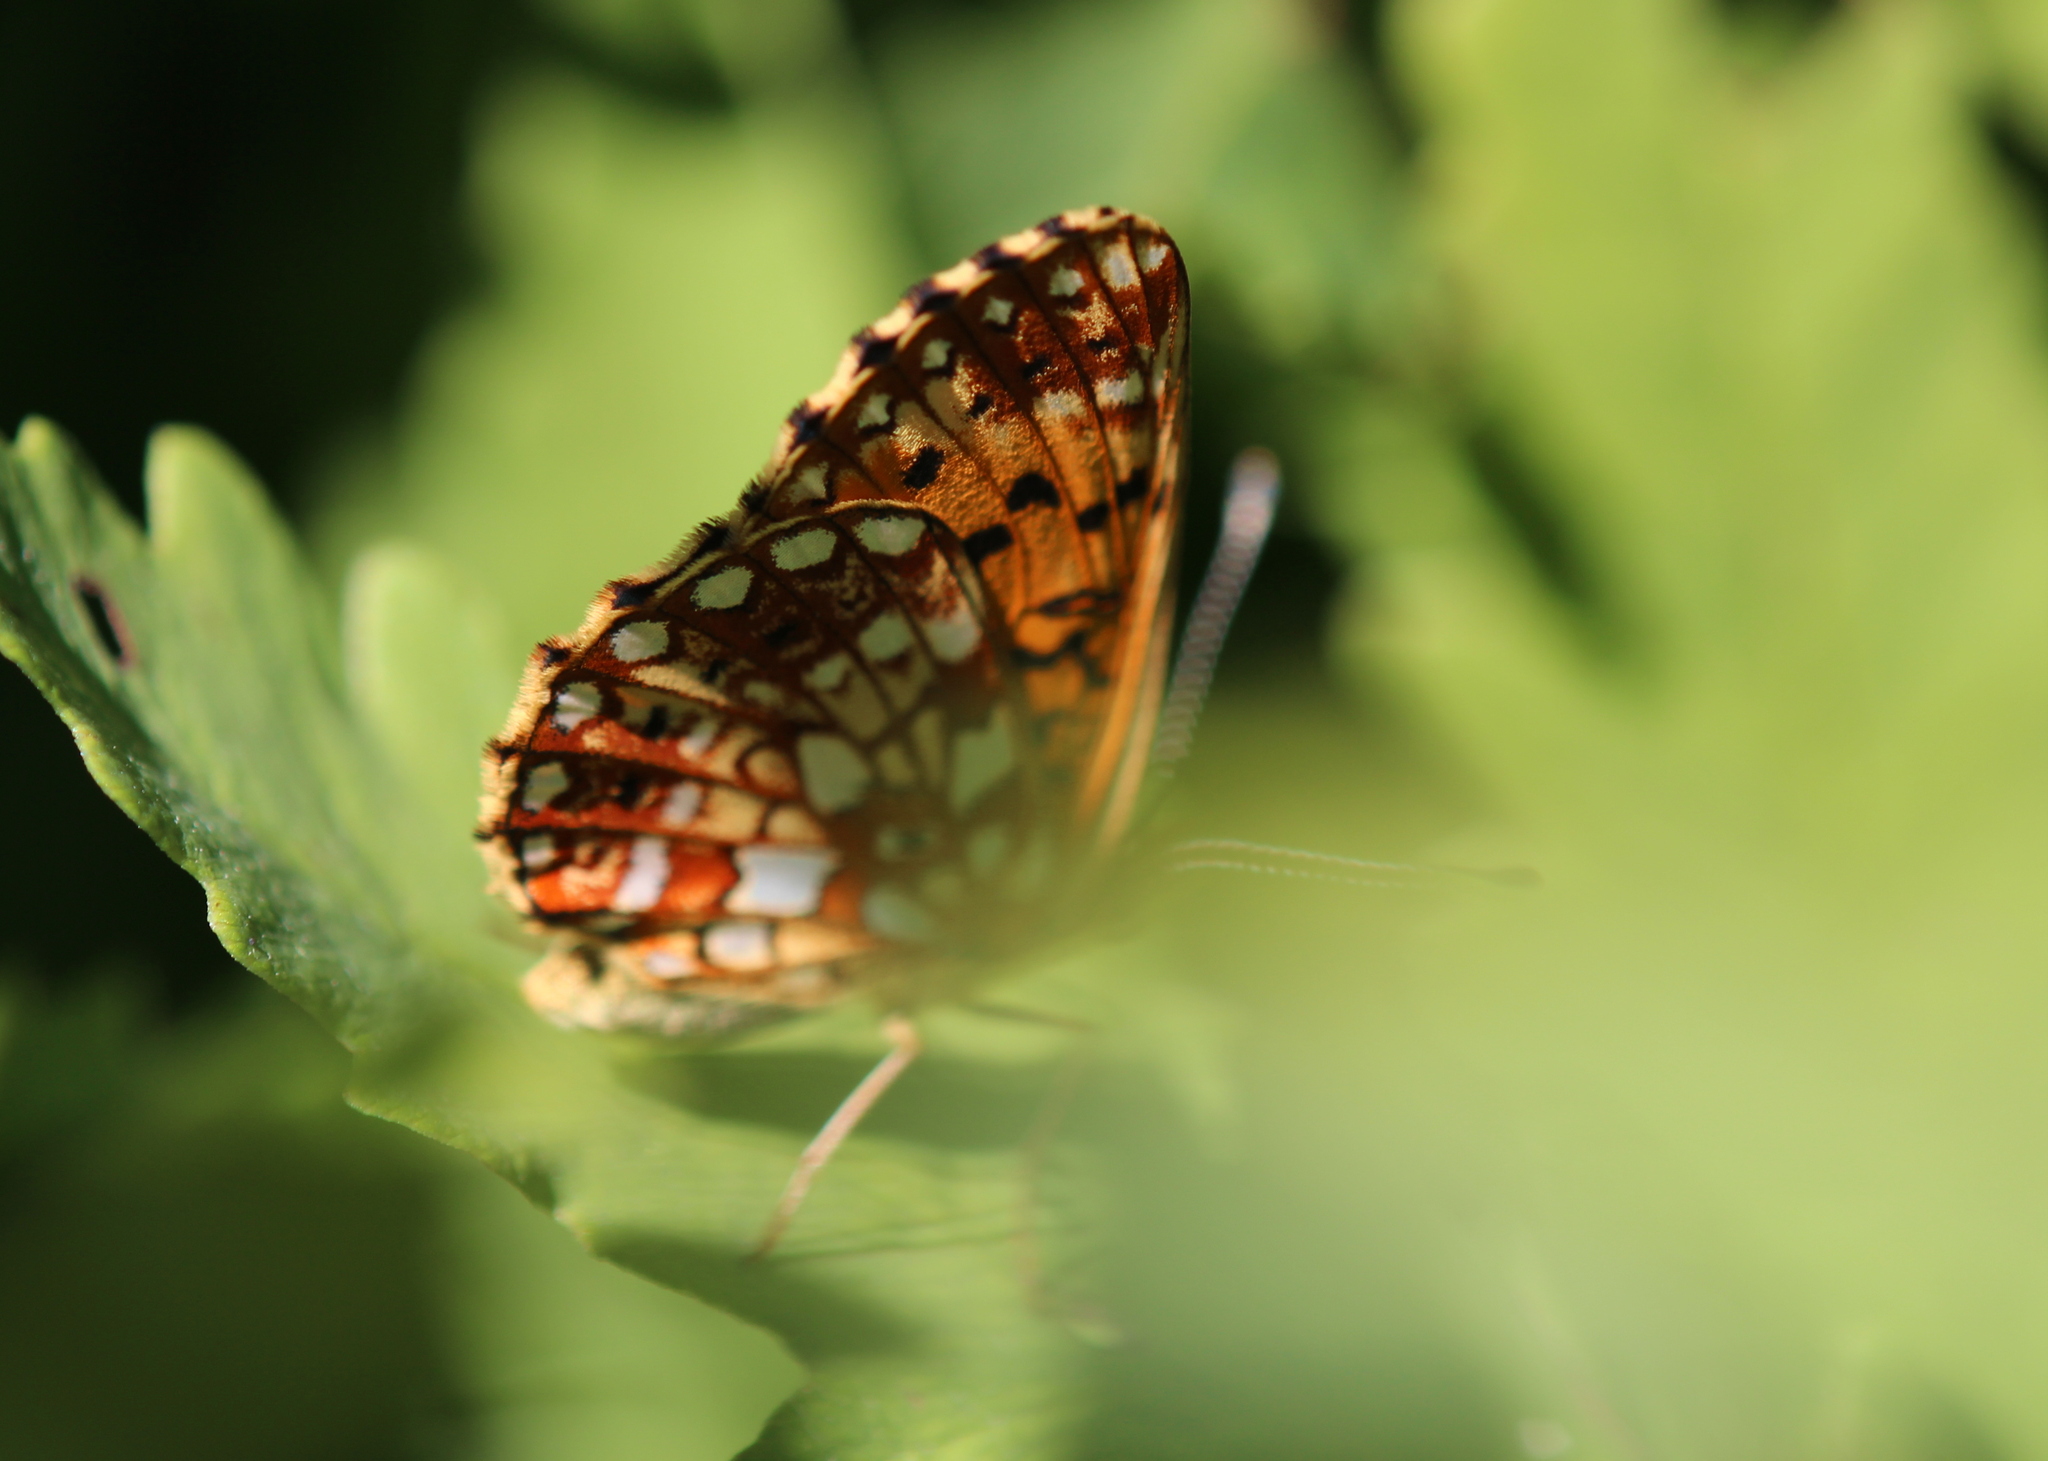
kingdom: Animalia
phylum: Arthropoda
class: Insecta
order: Lepidoptera
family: Nymphalidae
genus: Boloria
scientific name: Boloria
